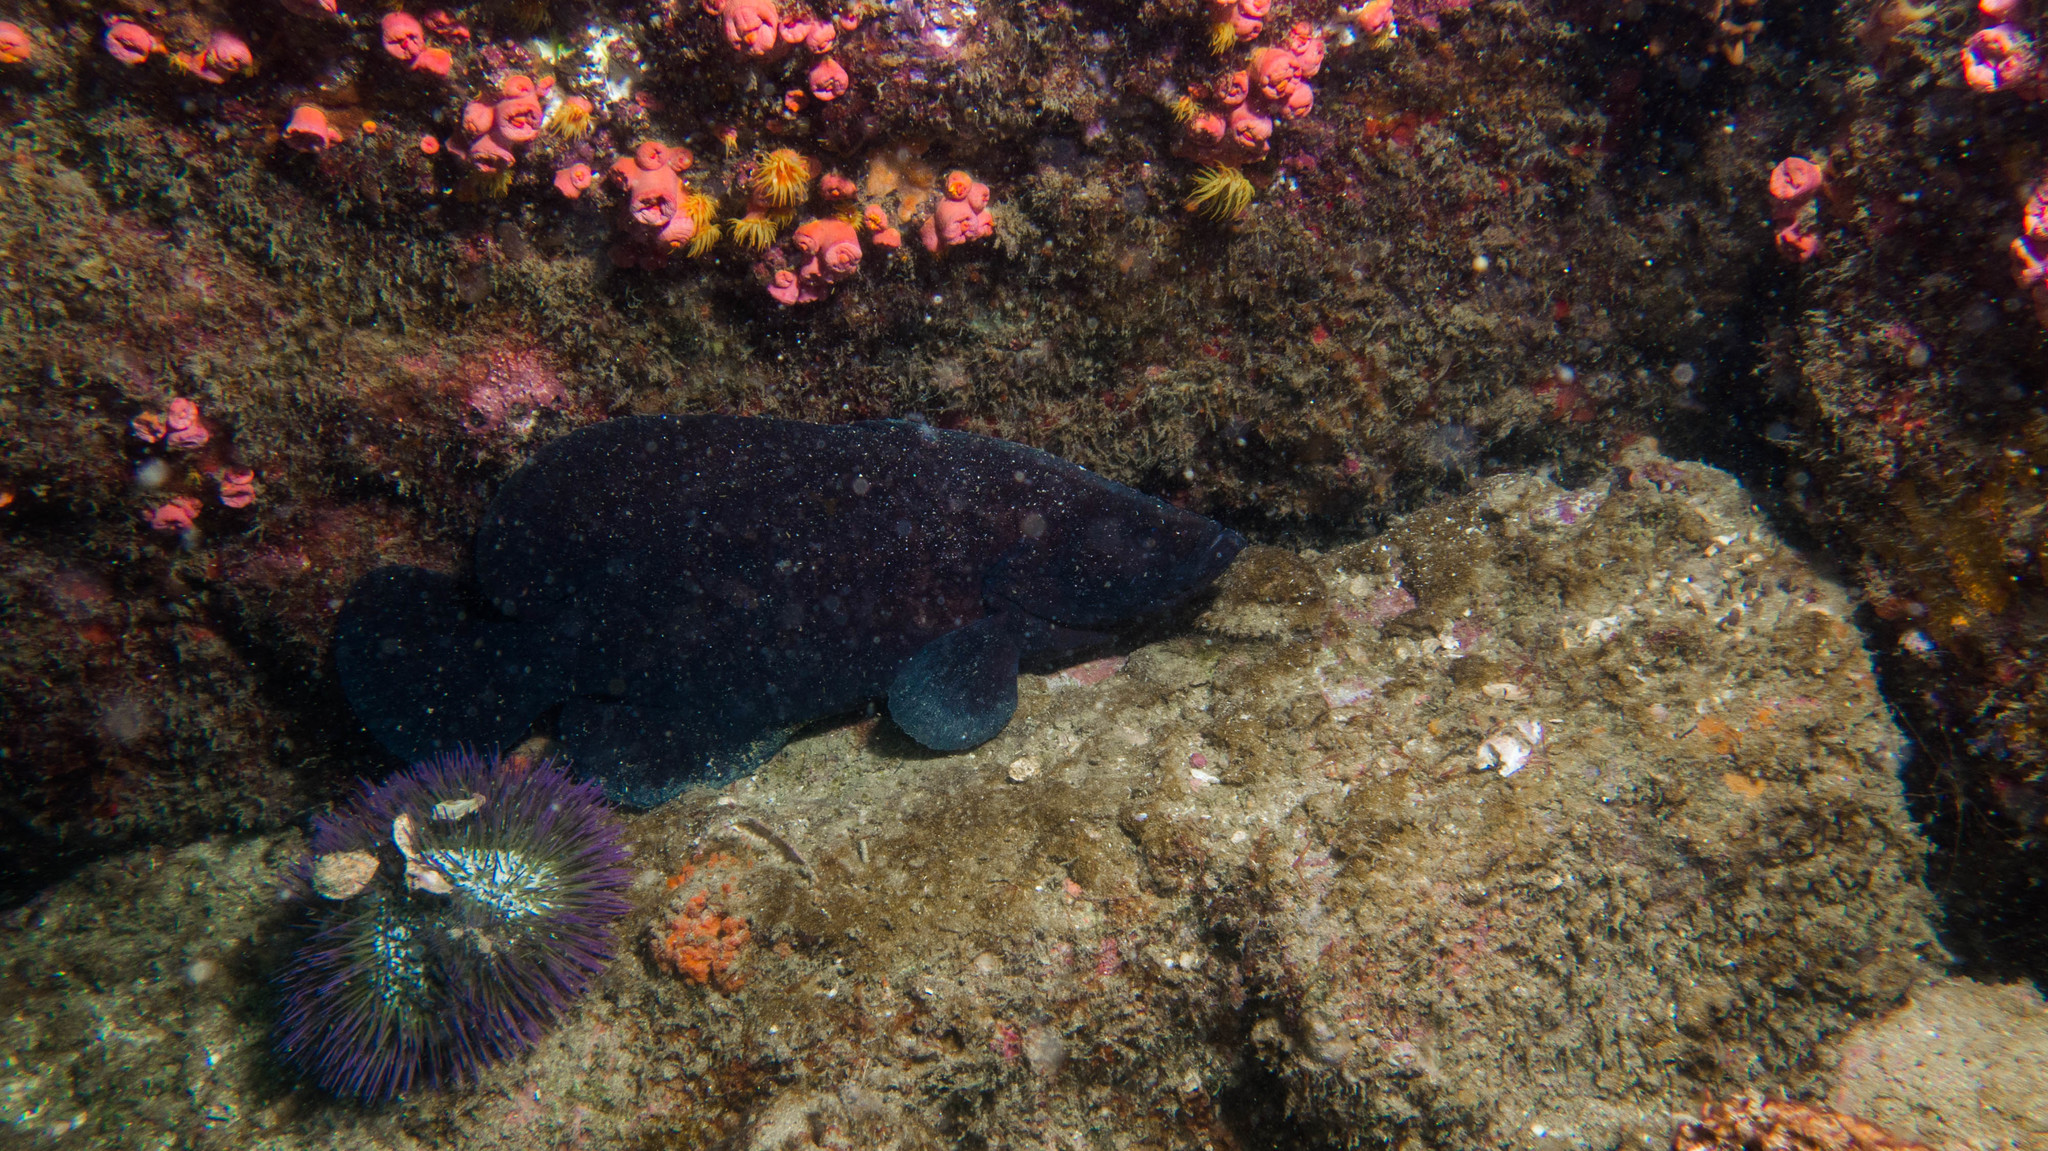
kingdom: Animalia
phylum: Chordata
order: Perciformes
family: Serranidae
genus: Rypticus
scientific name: Rypticus saponaceus
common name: Soapfish
